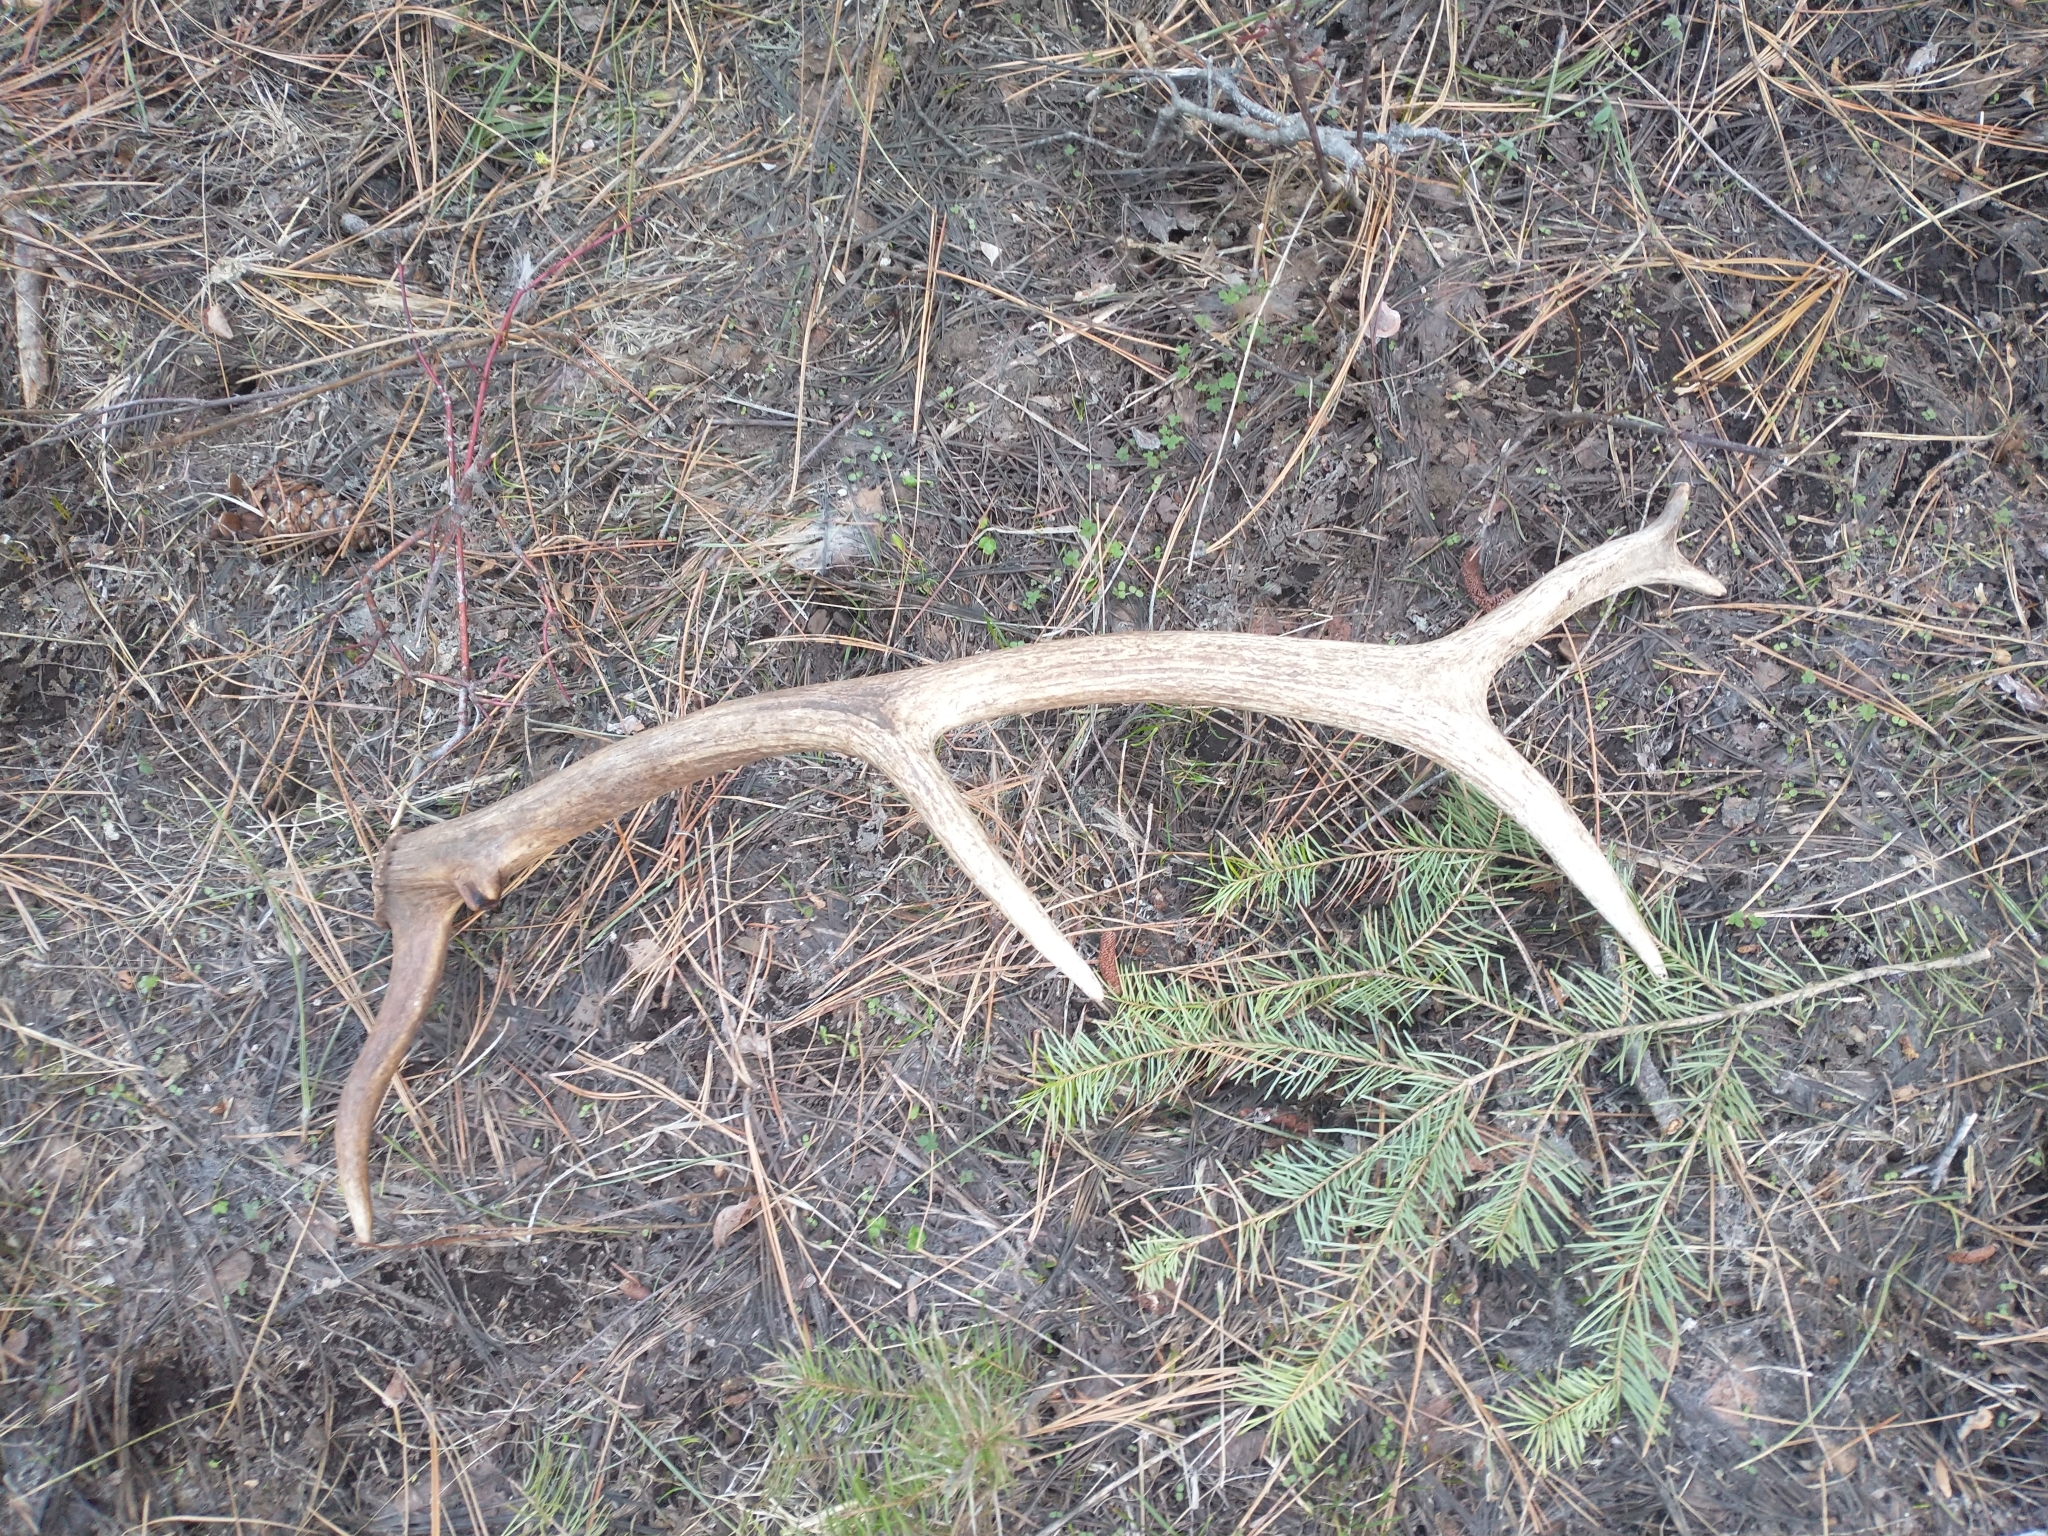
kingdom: Animalia
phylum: Chordata
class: Mammalia
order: Artiodactyla
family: Cervidae
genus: Cervus
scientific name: Cervus elaphus
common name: Red deer
